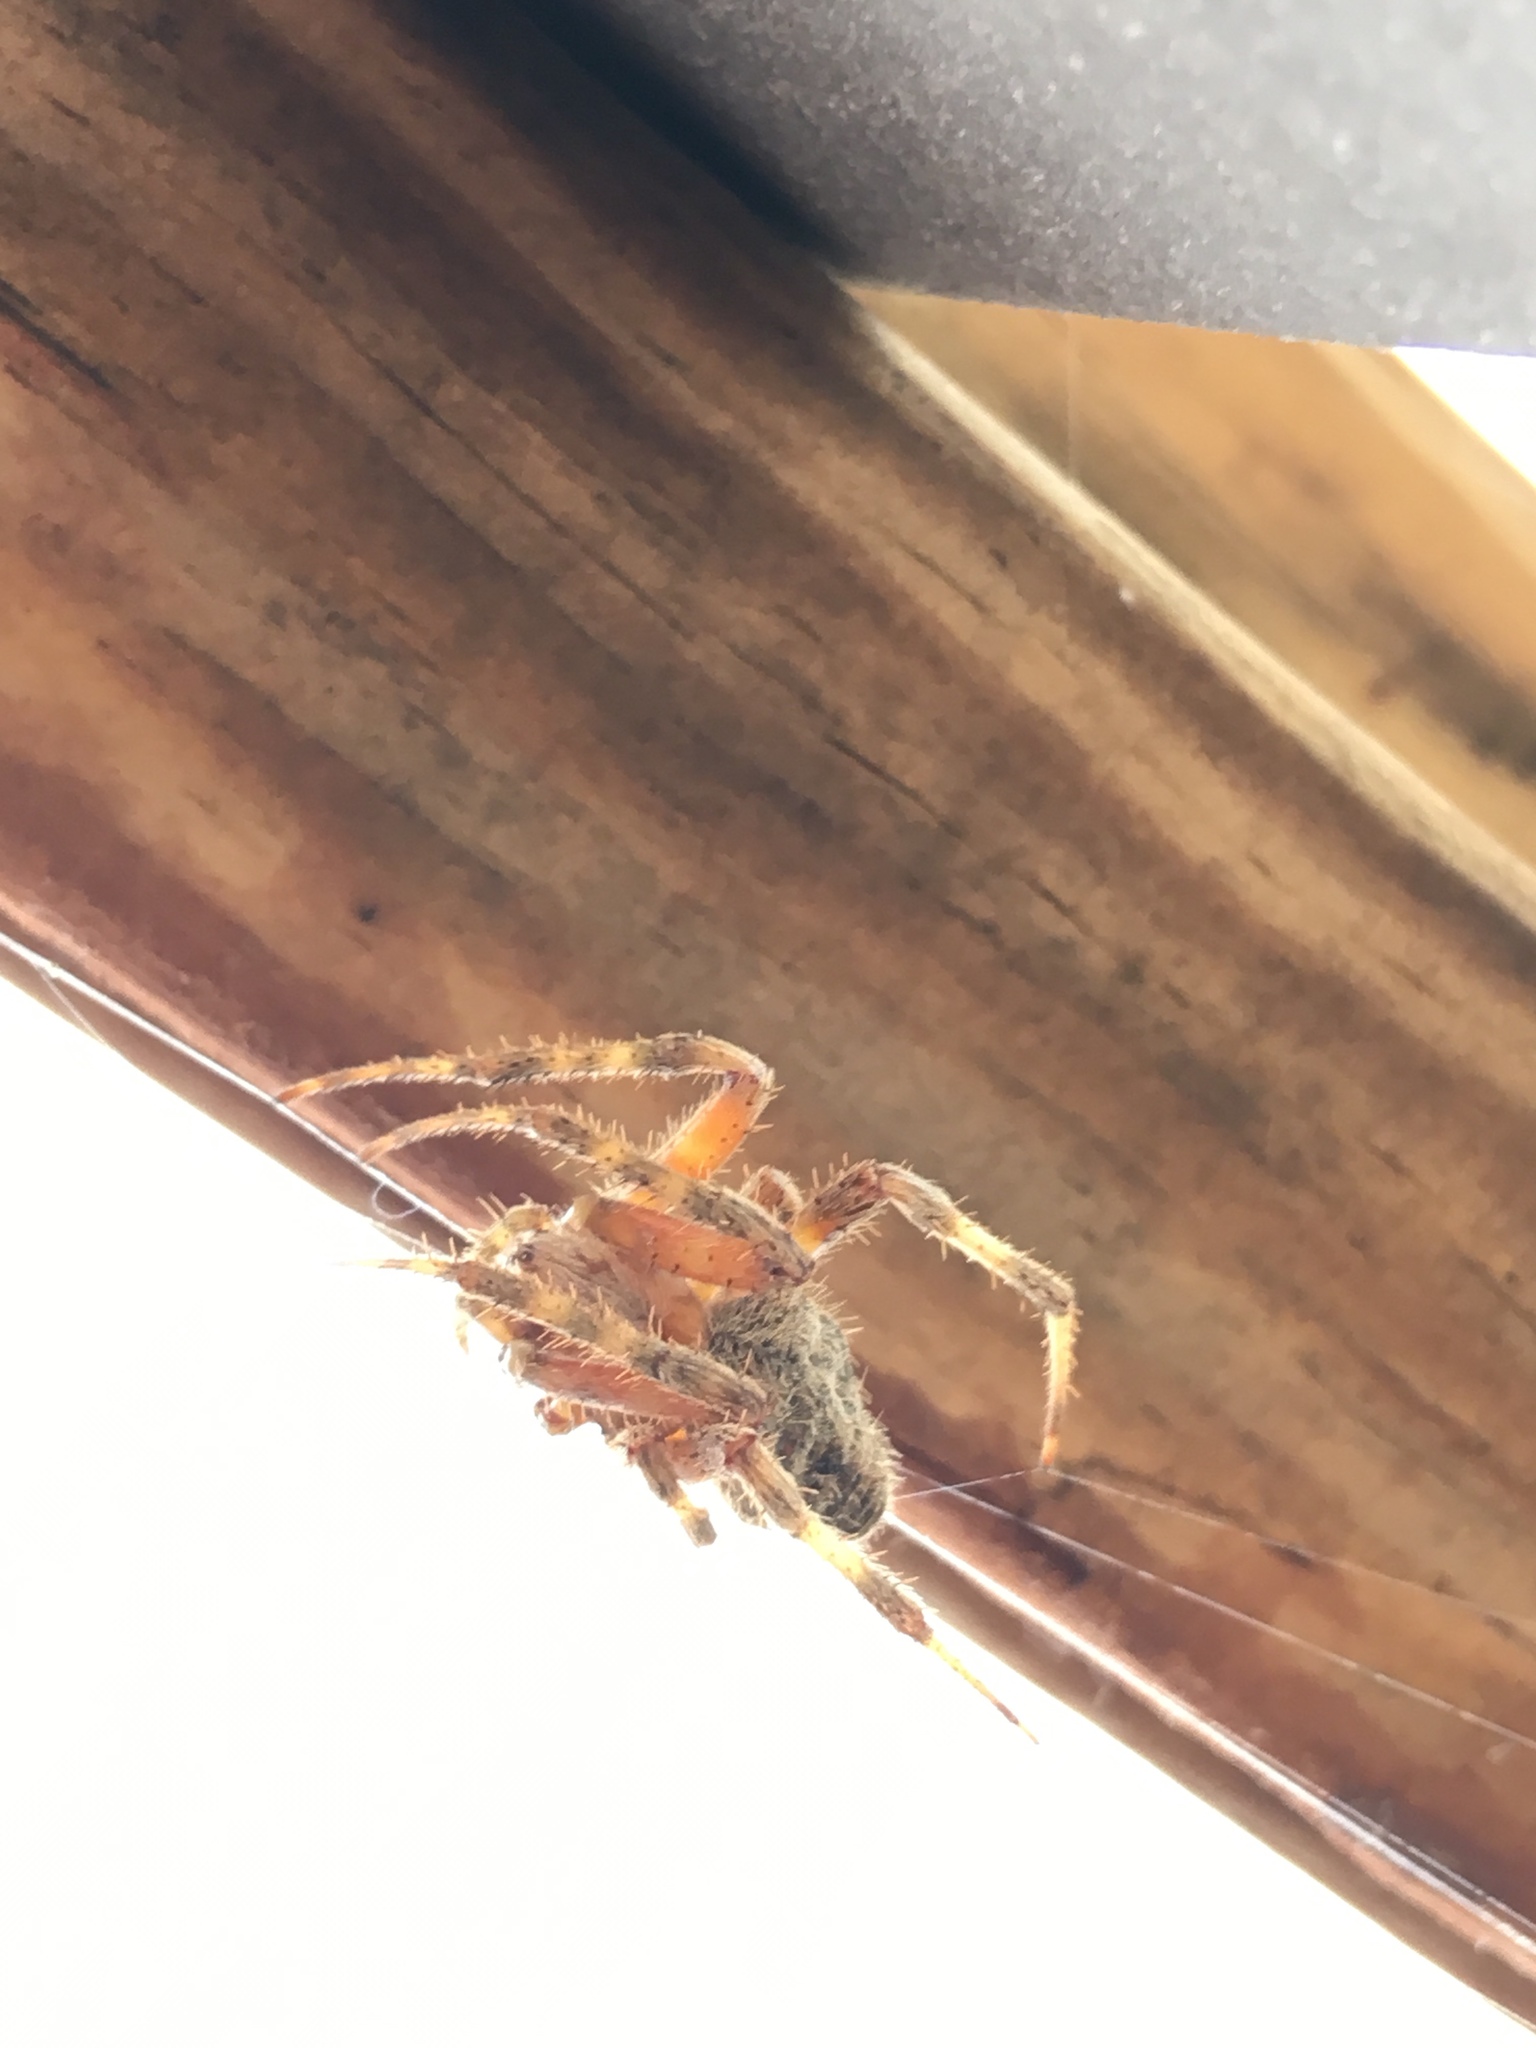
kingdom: Animalia
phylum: Arthropoda
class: Arachnida
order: Araneae
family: Araneidae
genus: Neoscona
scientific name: Neoscona crucifera
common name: Spotted orbweaver
